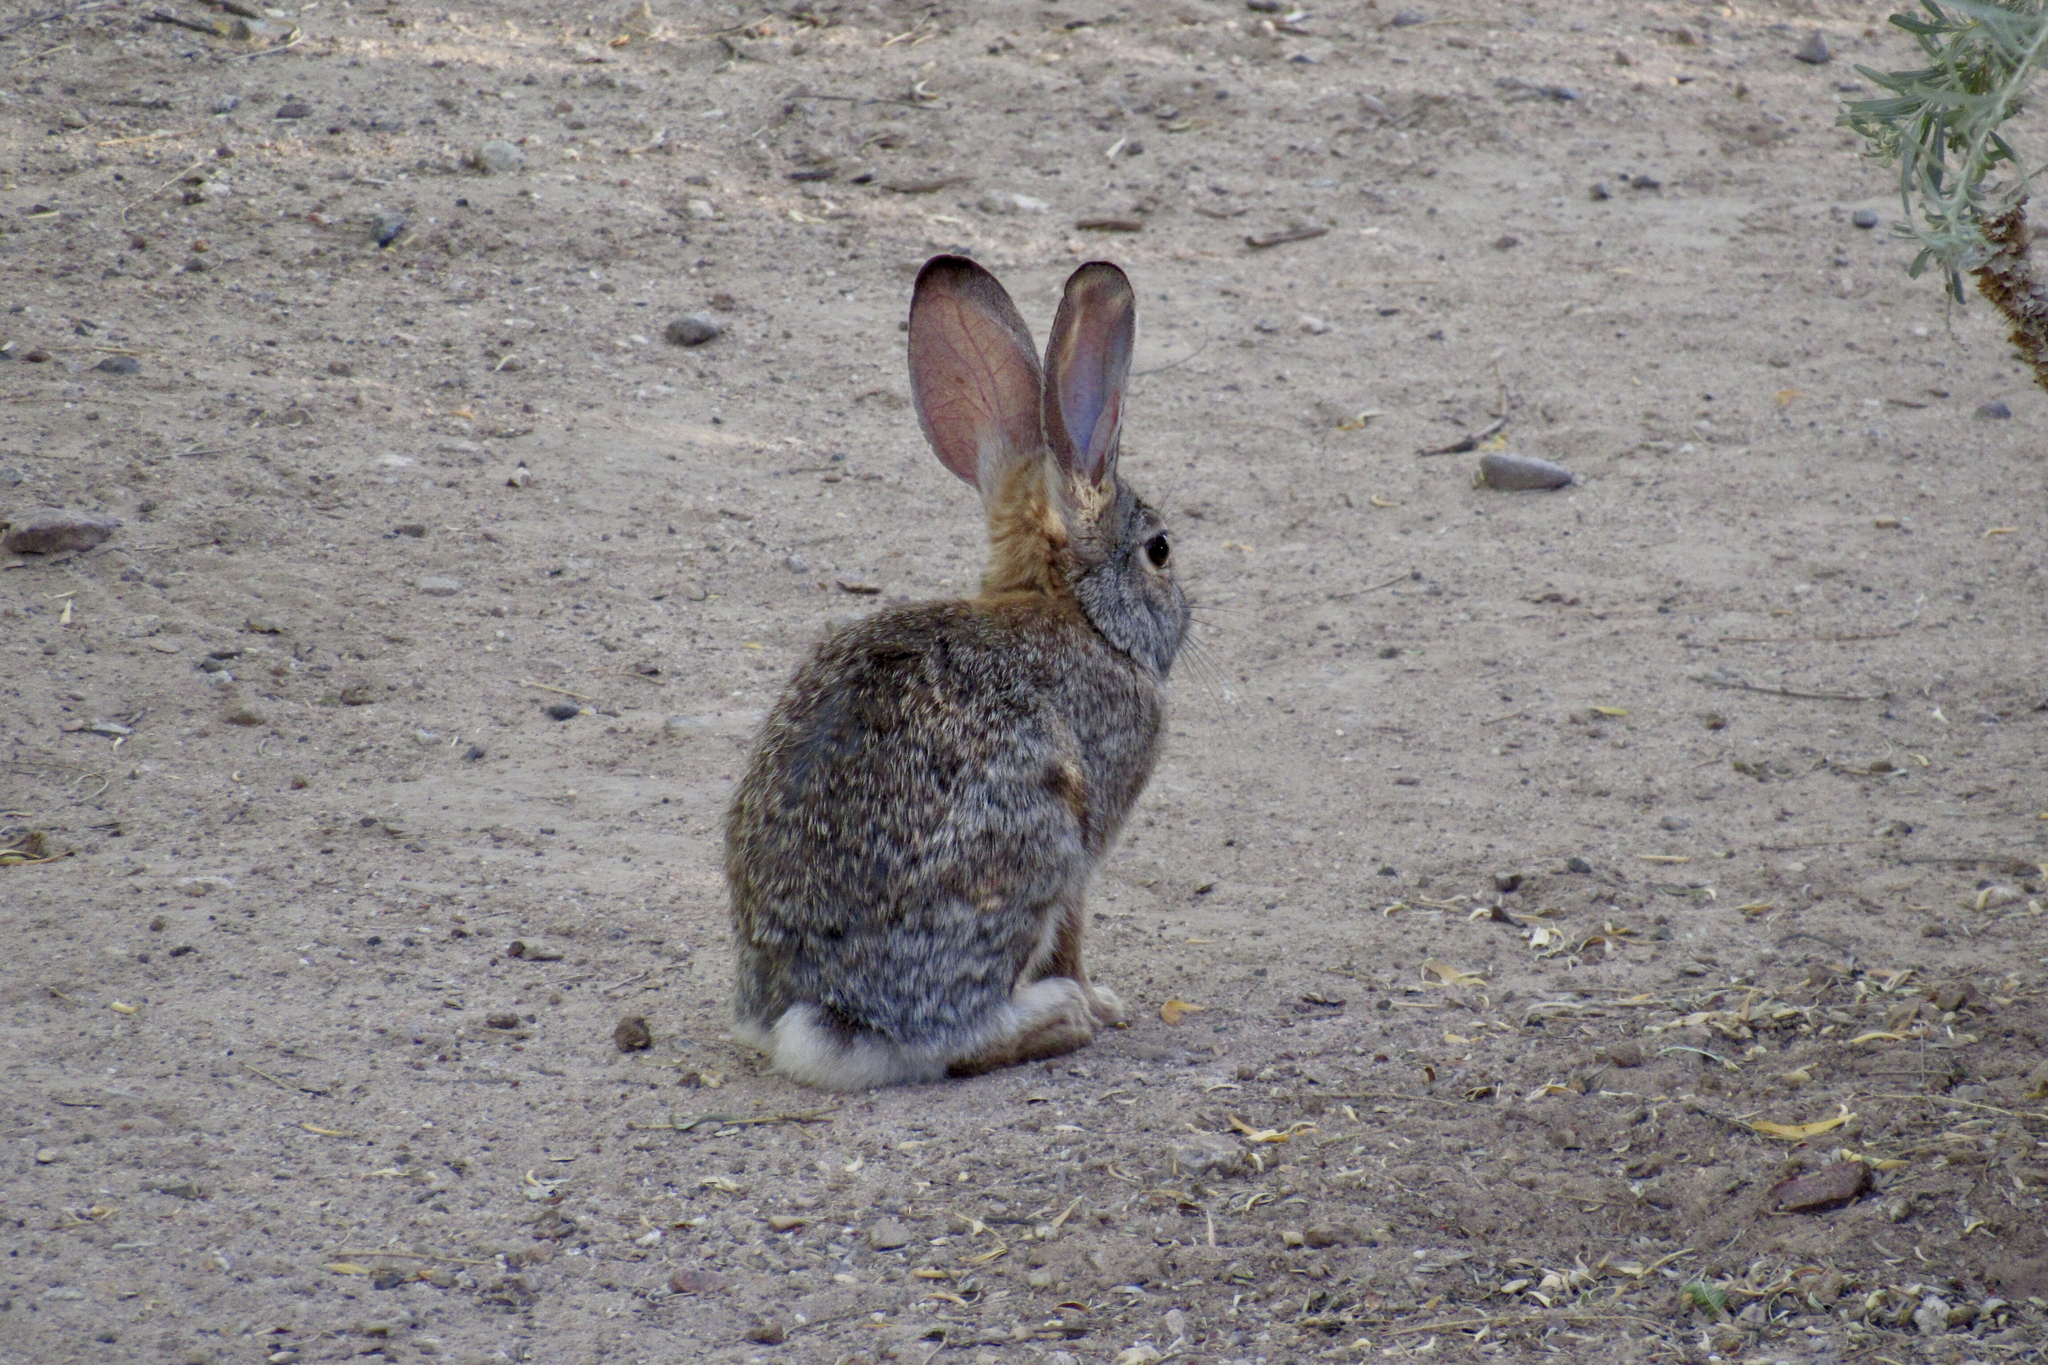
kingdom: Animalia
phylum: Chordata
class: Mammalia
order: Lagomorpha
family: Leporidae
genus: Sylvilagus
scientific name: Sylvilagus audubonii
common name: Desert cottontail
